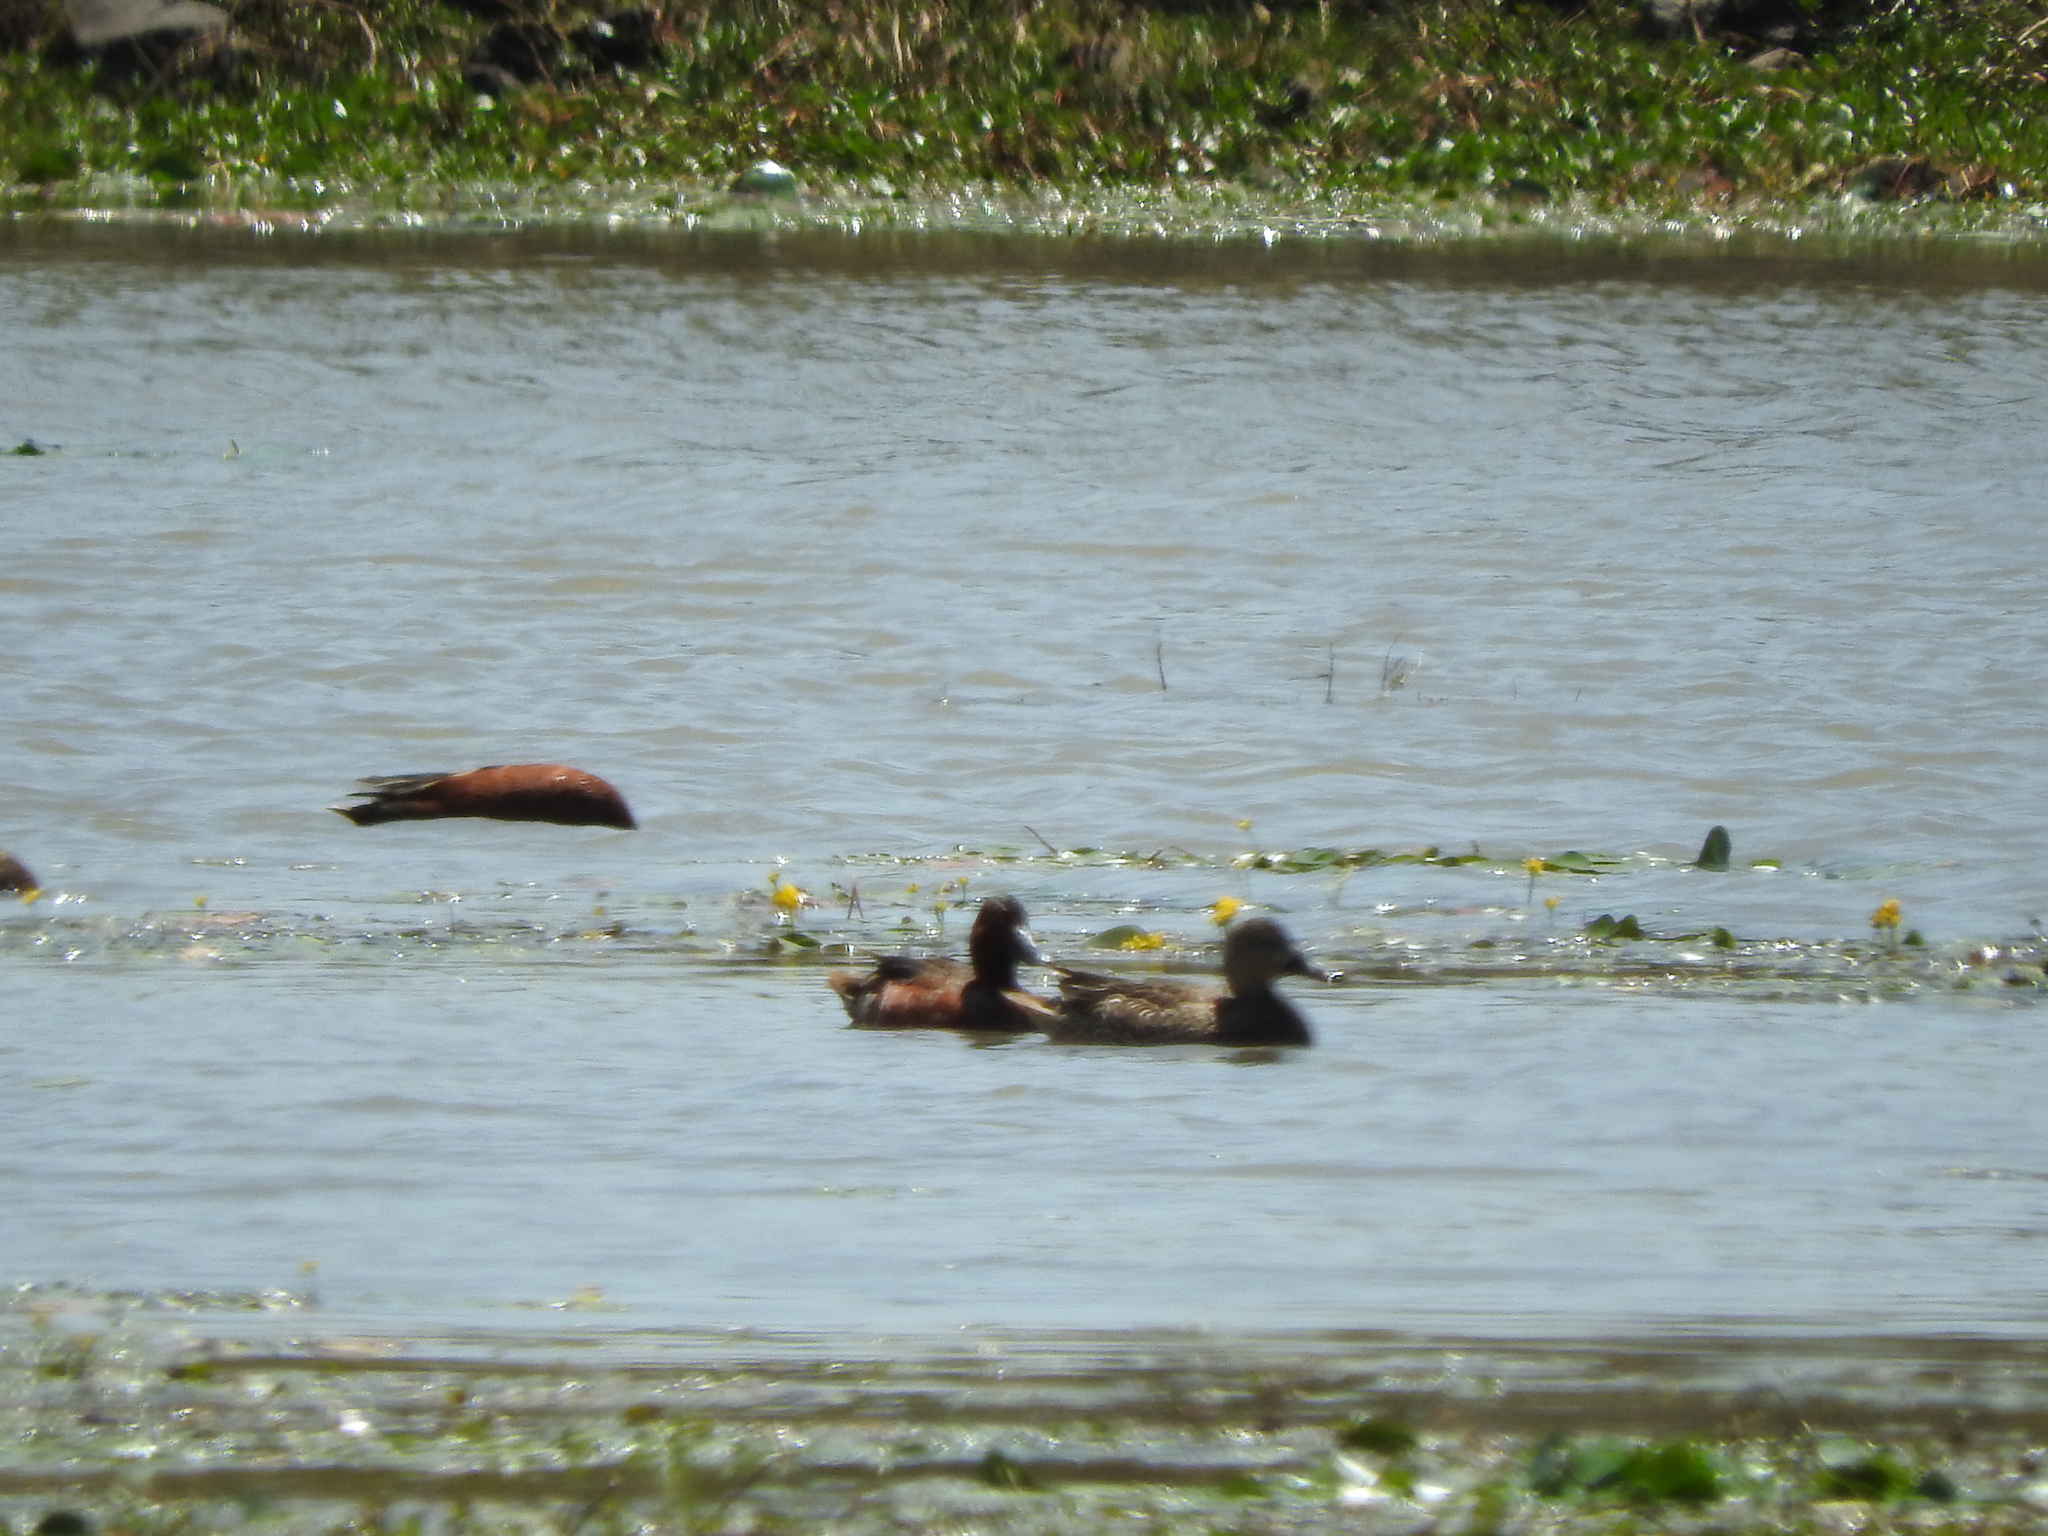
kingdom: Animalia
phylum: Chordata
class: Aves
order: Anseriformes
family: Anatidae
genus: Spatula
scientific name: Spatula cyanoptera
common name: Cinnamon teal
